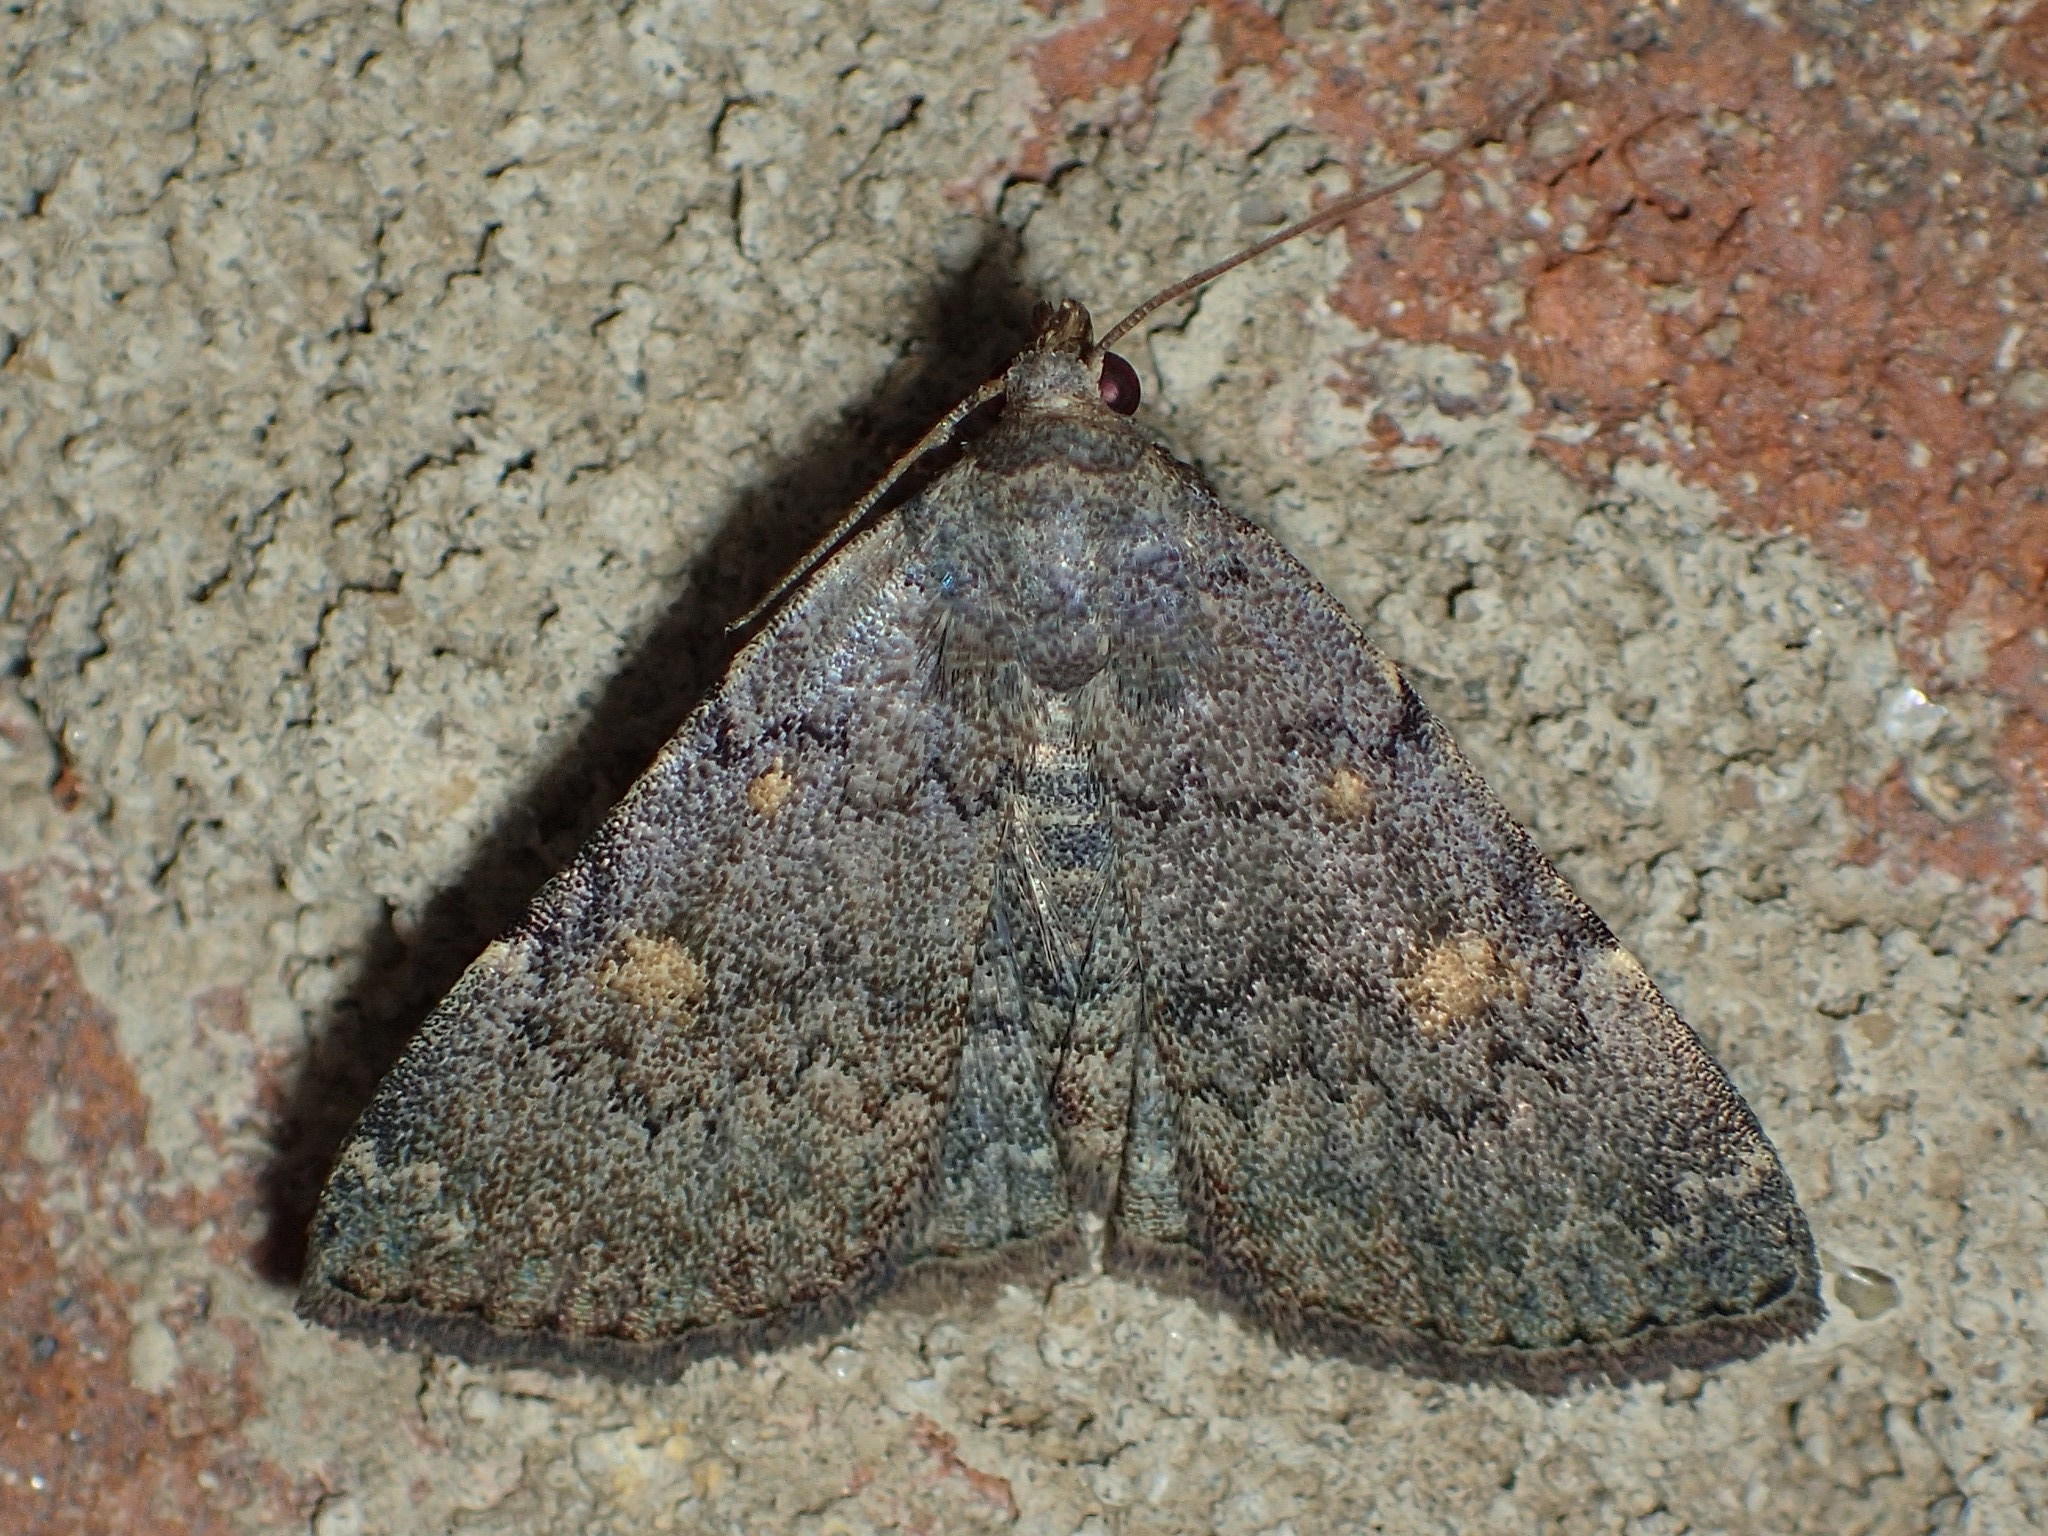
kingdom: Animalia
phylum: Arthropoda
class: Insecta
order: Lepidoptera
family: Erebidae
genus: Idia
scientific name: Idia aemula
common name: Common idia moth
